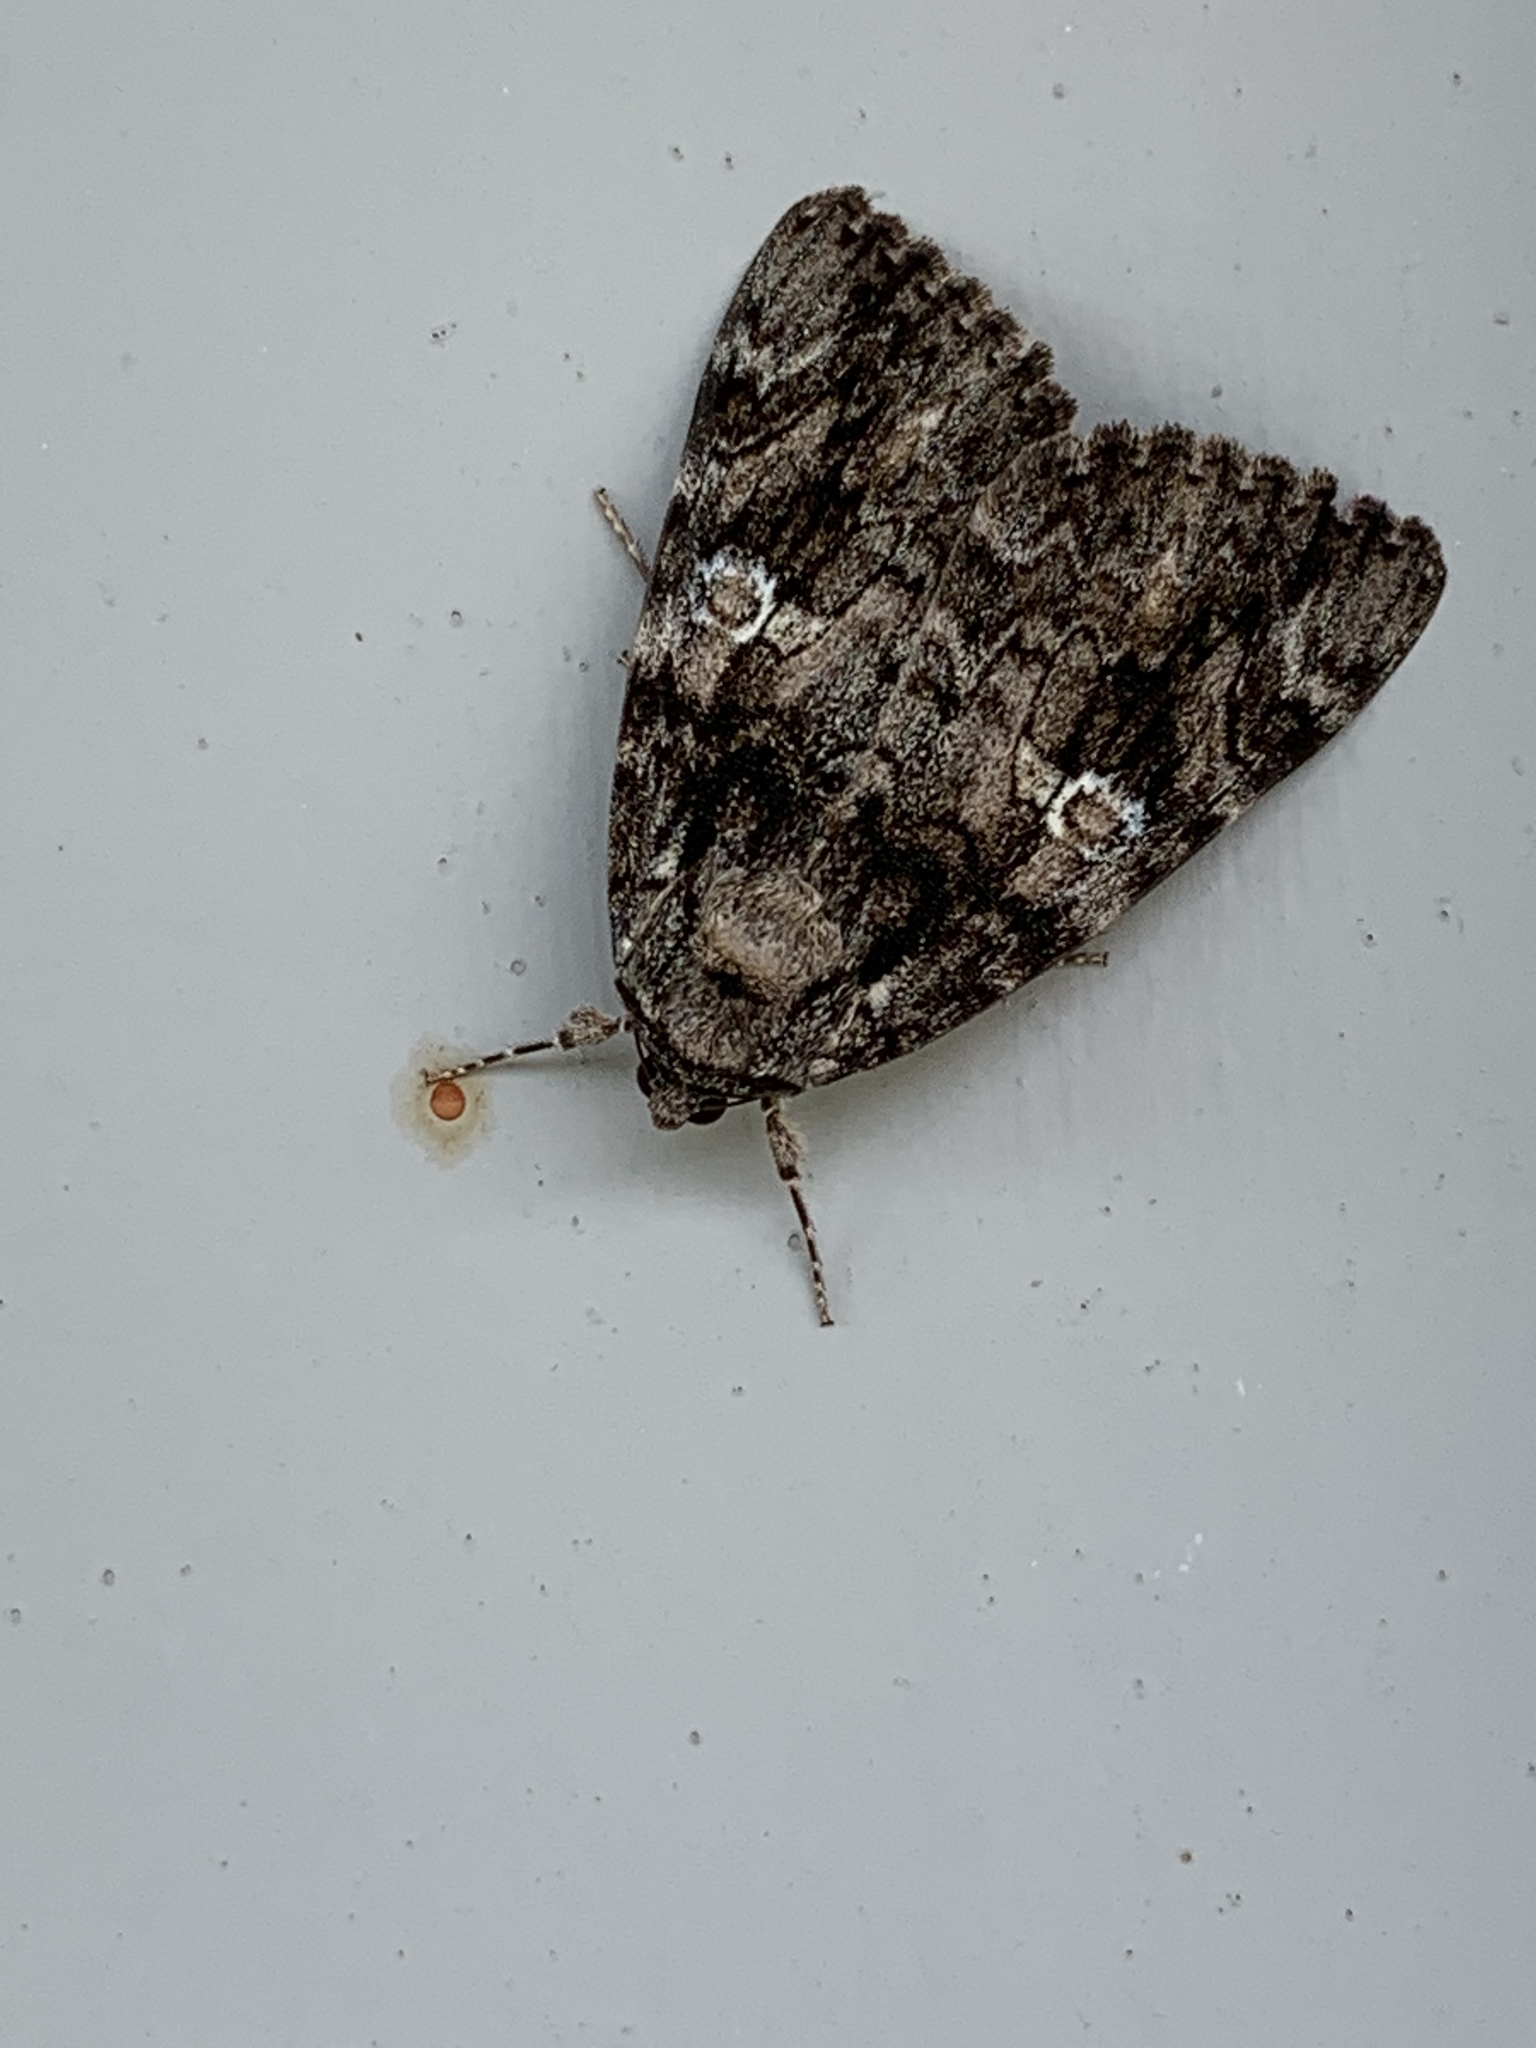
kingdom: Animalia
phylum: Arthropoda
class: Insecta
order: Lepidoptera
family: Erebidae
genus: Catocala
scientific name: Catocala ilia
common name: Ilia underwing
